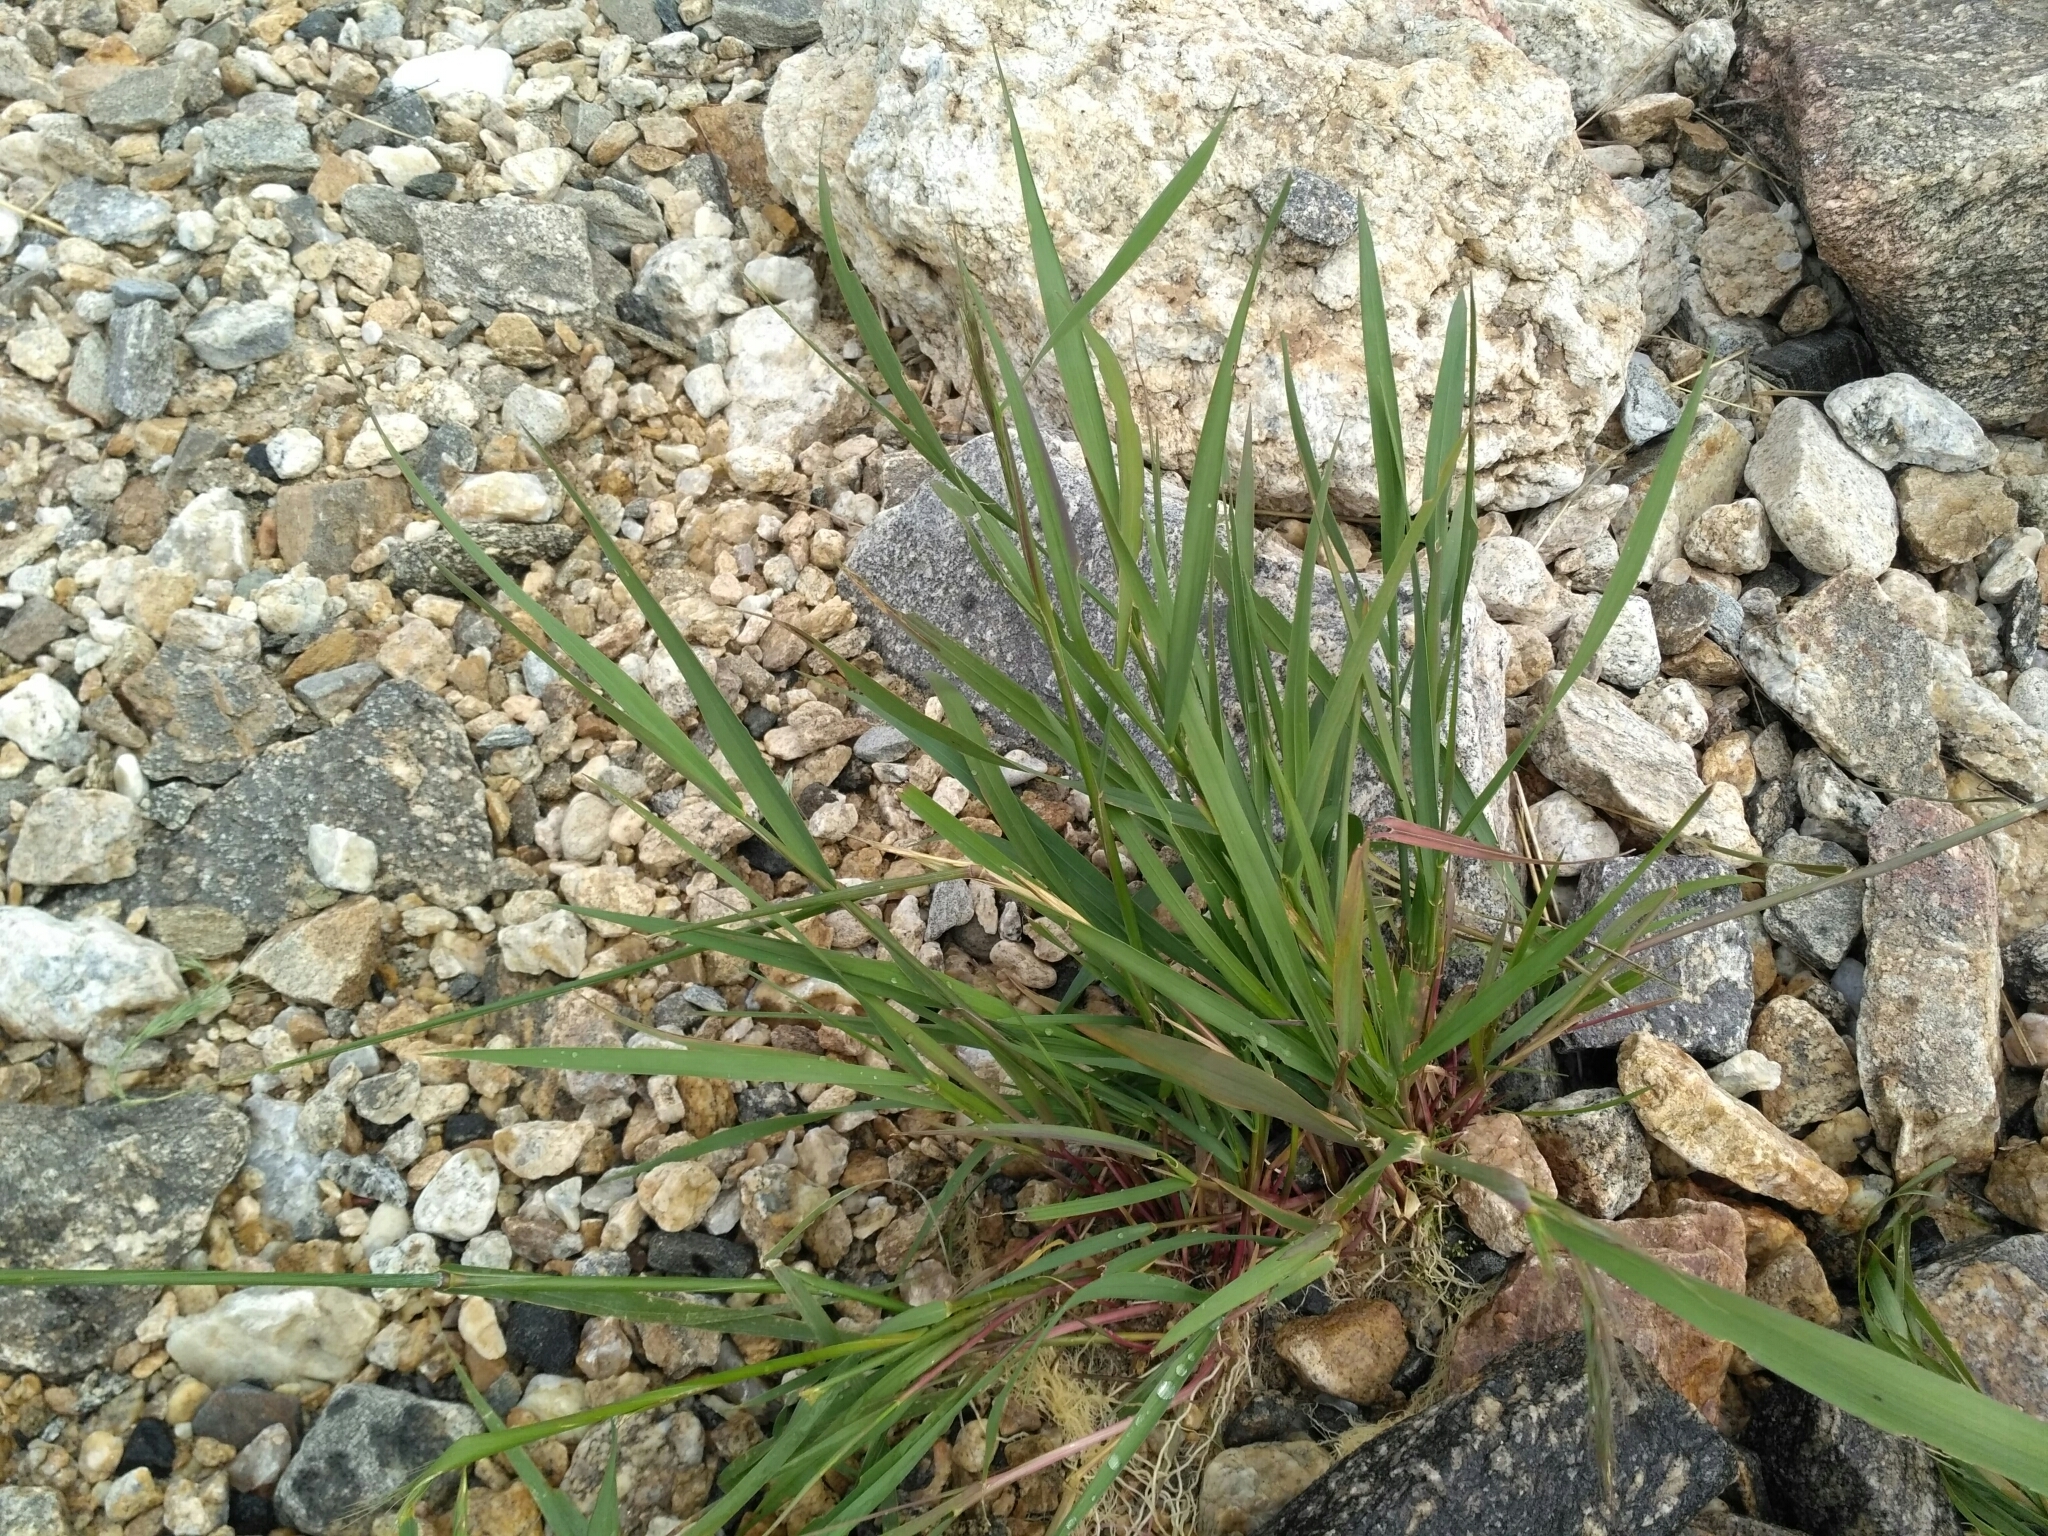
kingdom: Plantae
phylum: Tracheophyta
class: Liliopsida
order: Poales
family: Poaceae
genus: Elymus
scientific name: Elymus sibiricus
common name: Siberian wildrye
